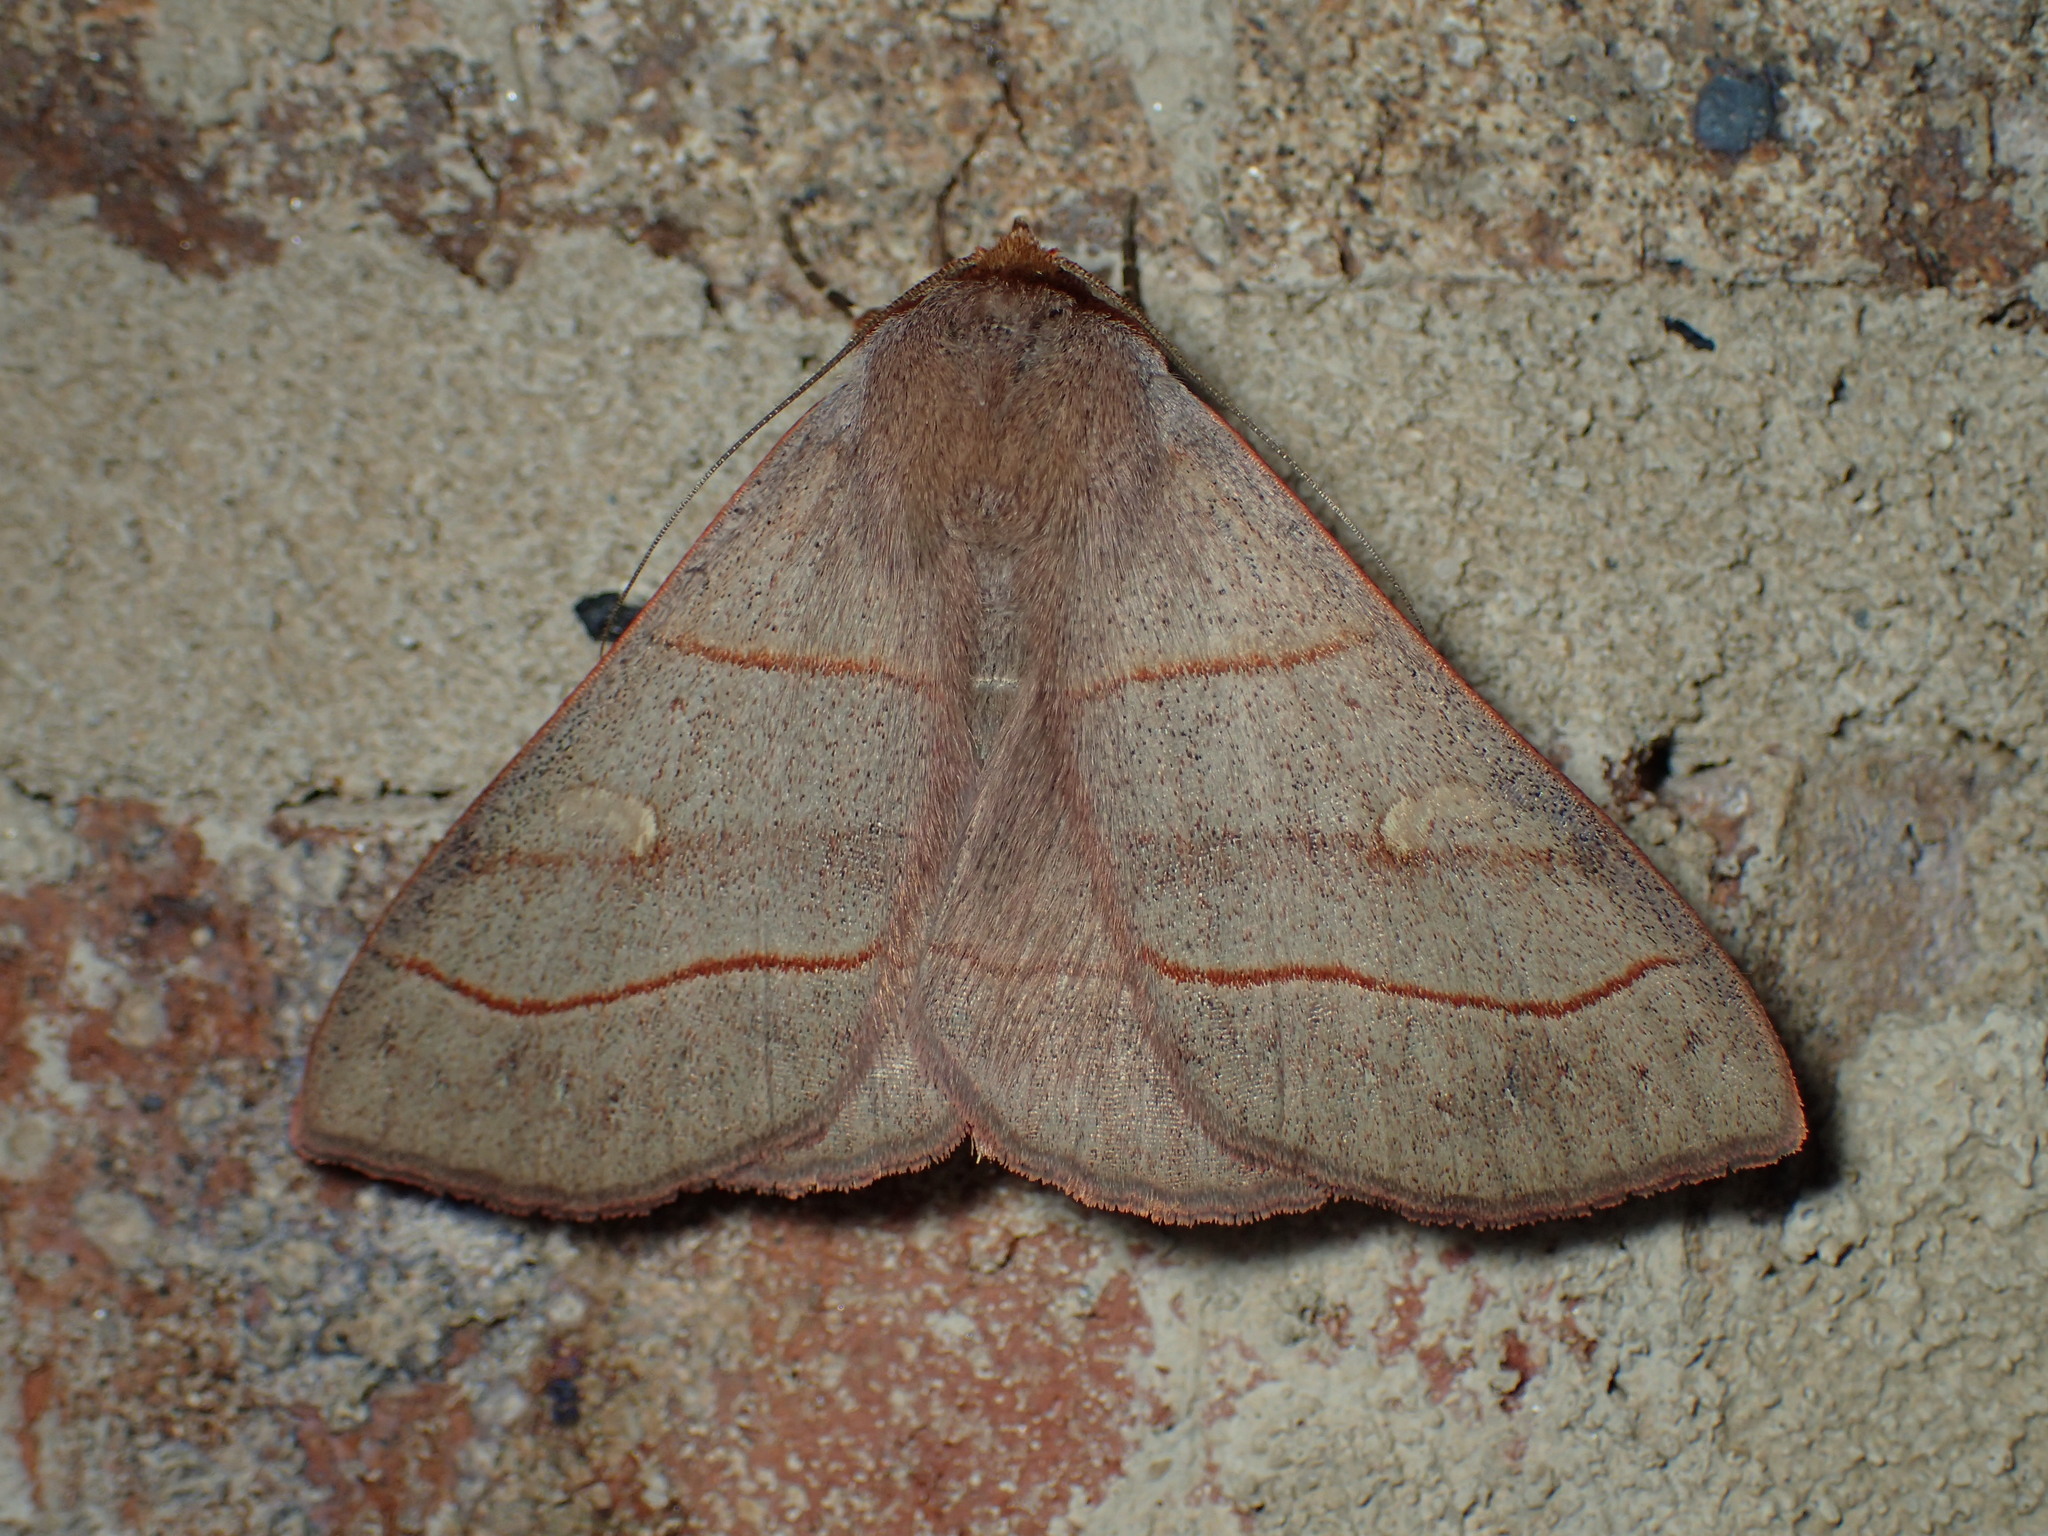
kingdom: Animalia
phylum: Arthropoda
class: Insecta
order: Lepidoptera
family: Erebidae
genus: Panopoda
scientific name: Panopoda rufimargo
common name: Red-lined panopoda moth
